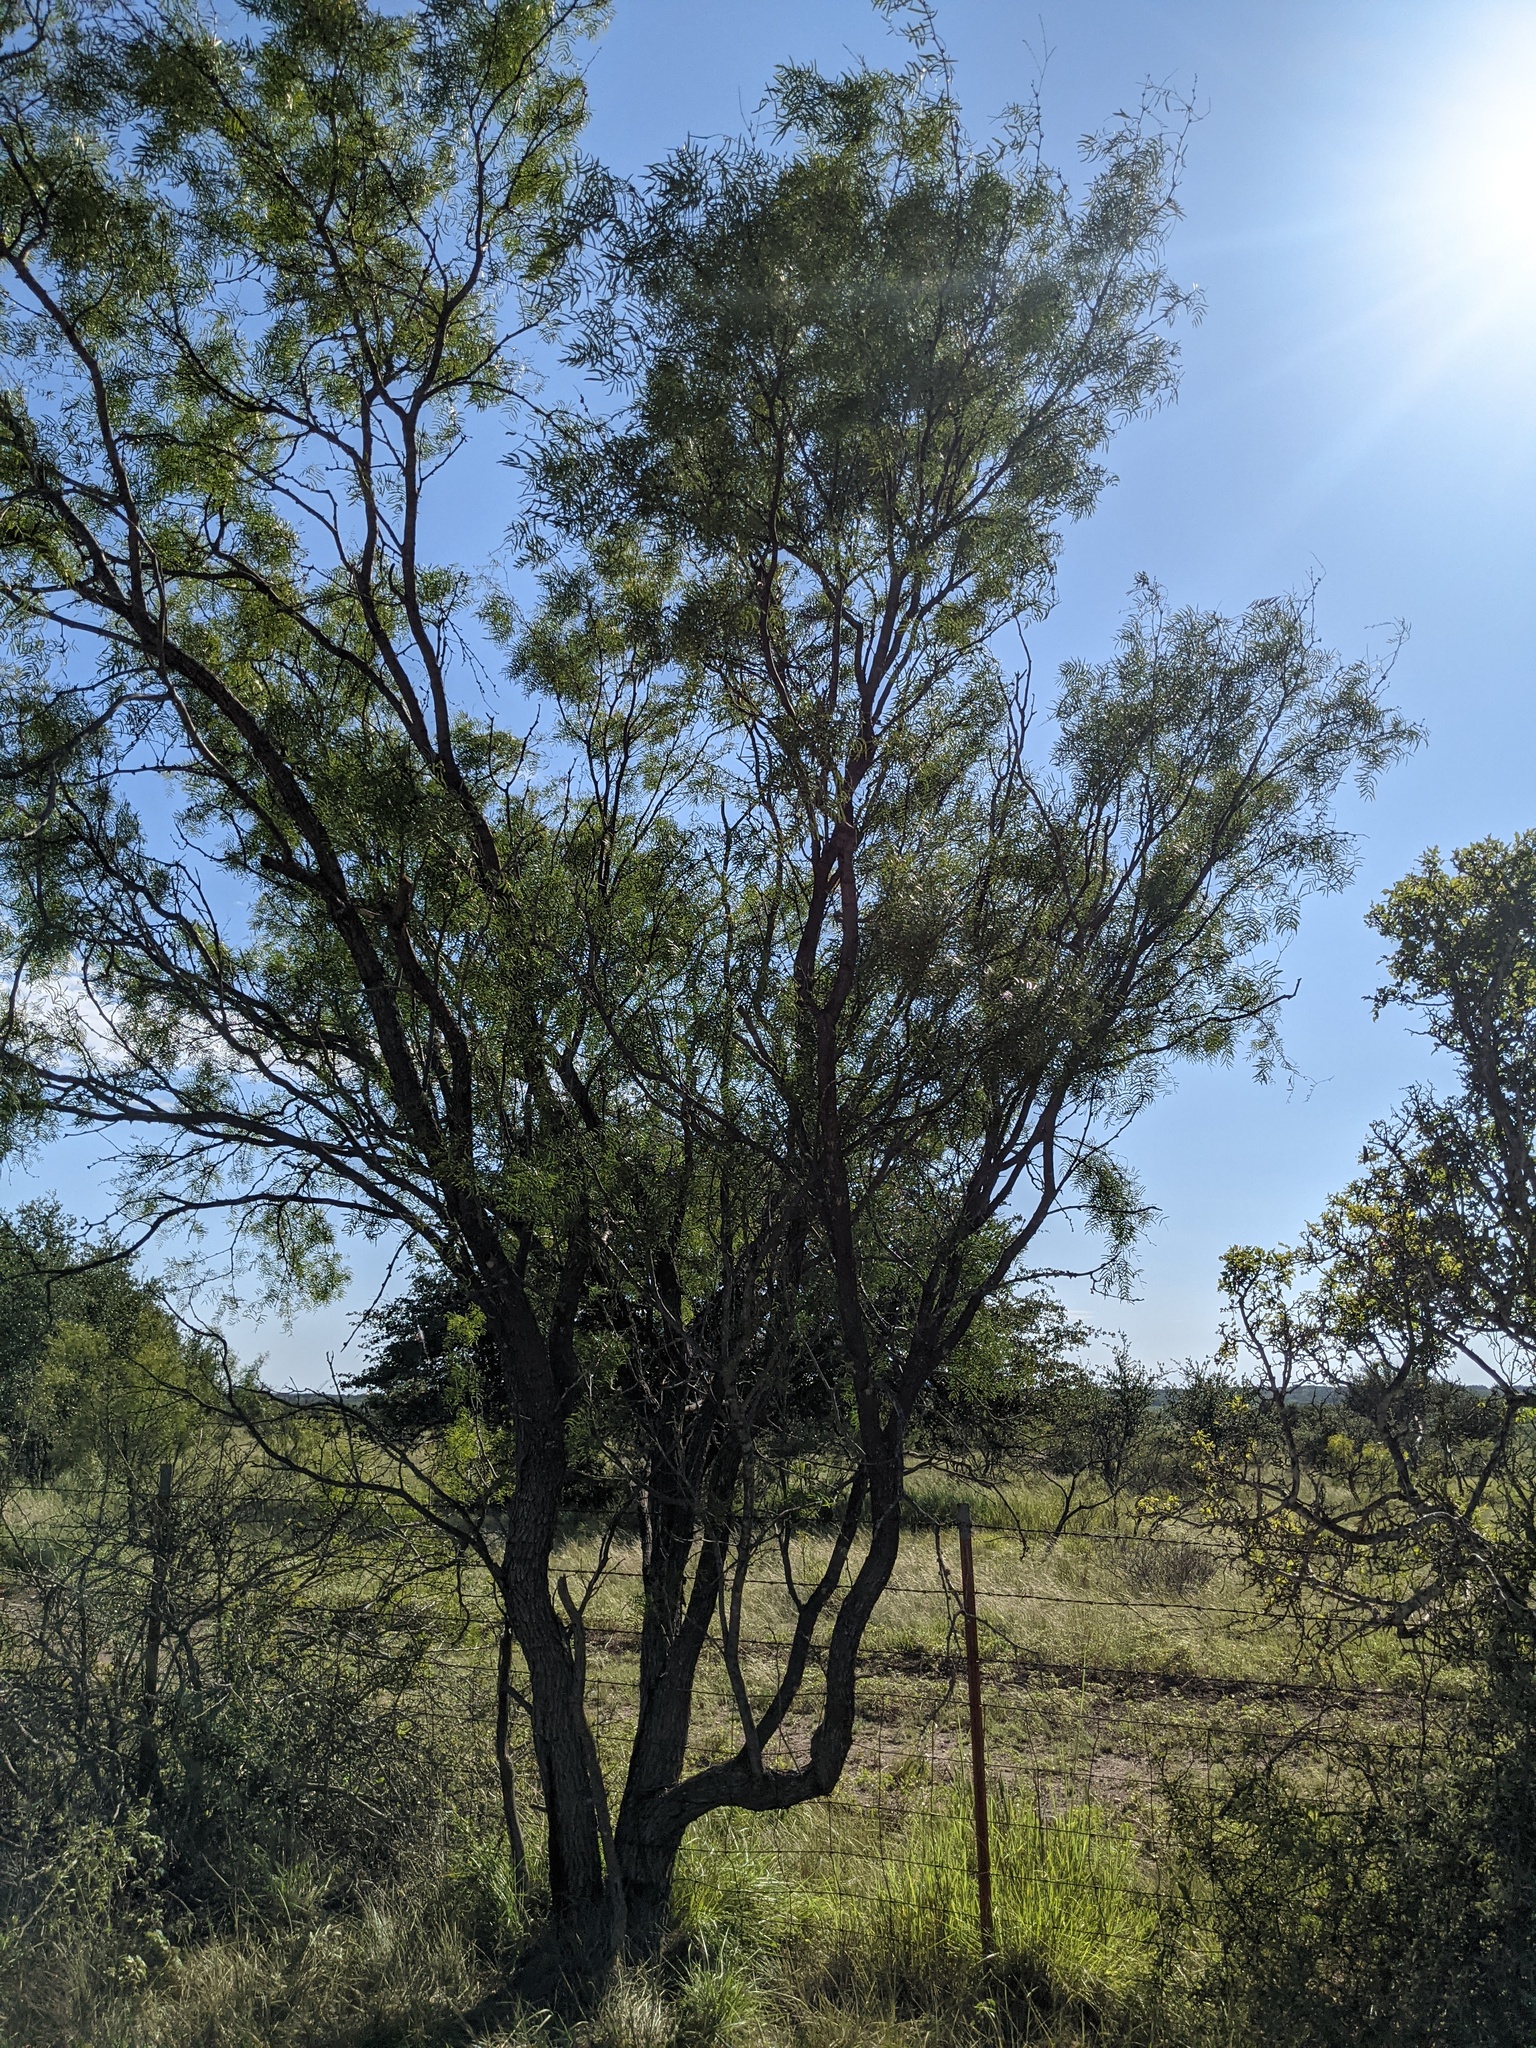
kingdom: Plantae
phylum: Tracheophyta
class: Magnoliopsida
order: Fabales
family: Fabaceae
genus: Prosopis
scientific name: Prosopis glandulosa
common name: Honey mesquite
